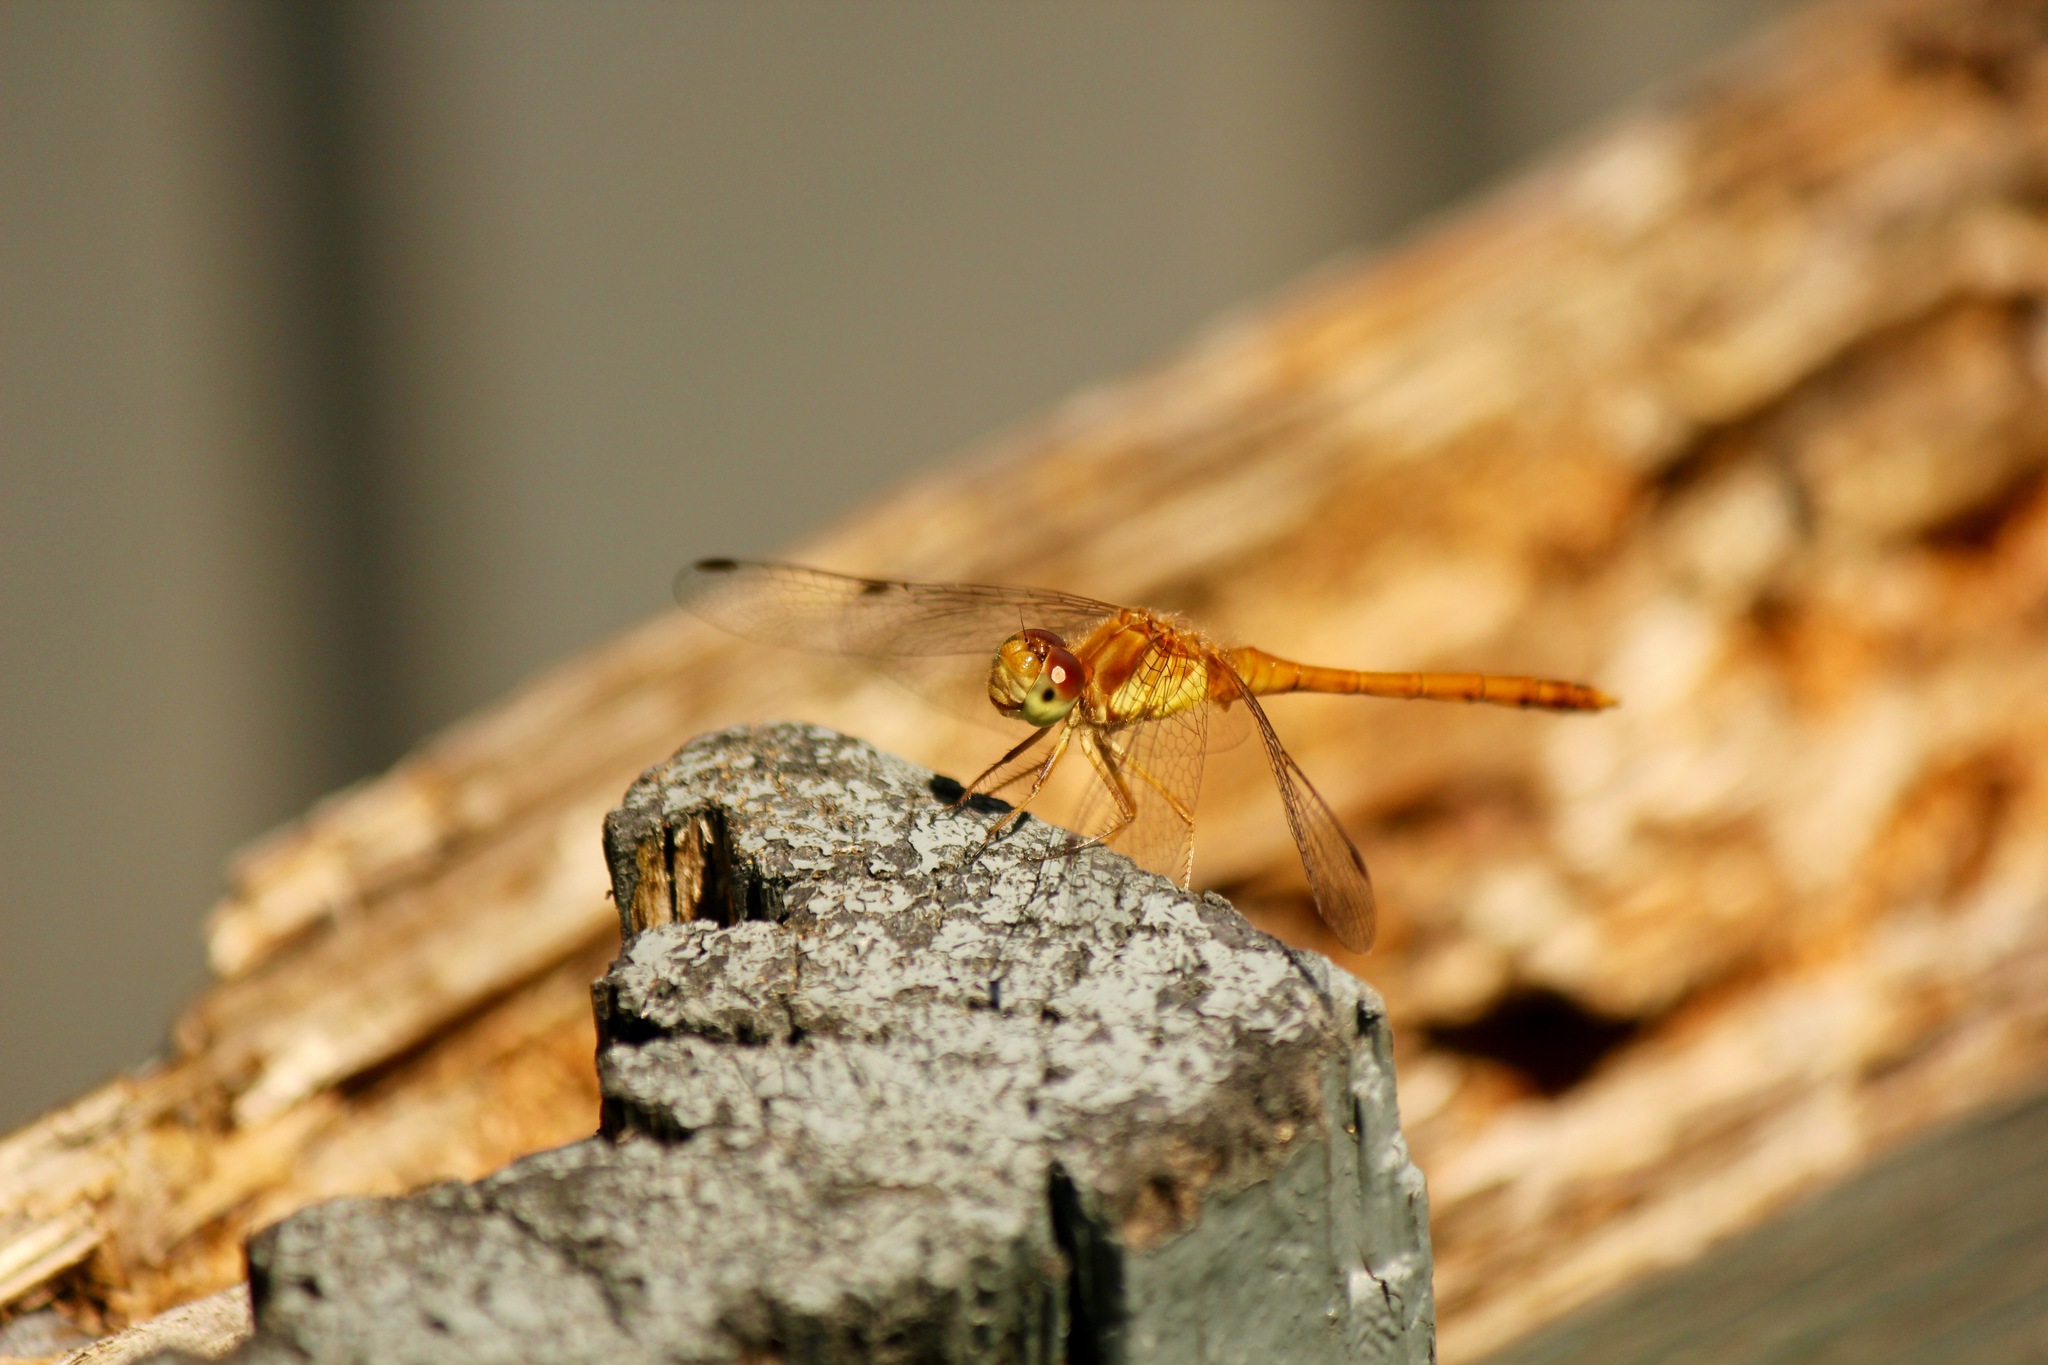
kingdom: Animalia
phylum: Arthropoda
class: Insecta
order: Odonata
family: Libellulidae
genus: Sympetrum
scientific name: Sympetrum vicinum
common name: Autumn meadowhawk
